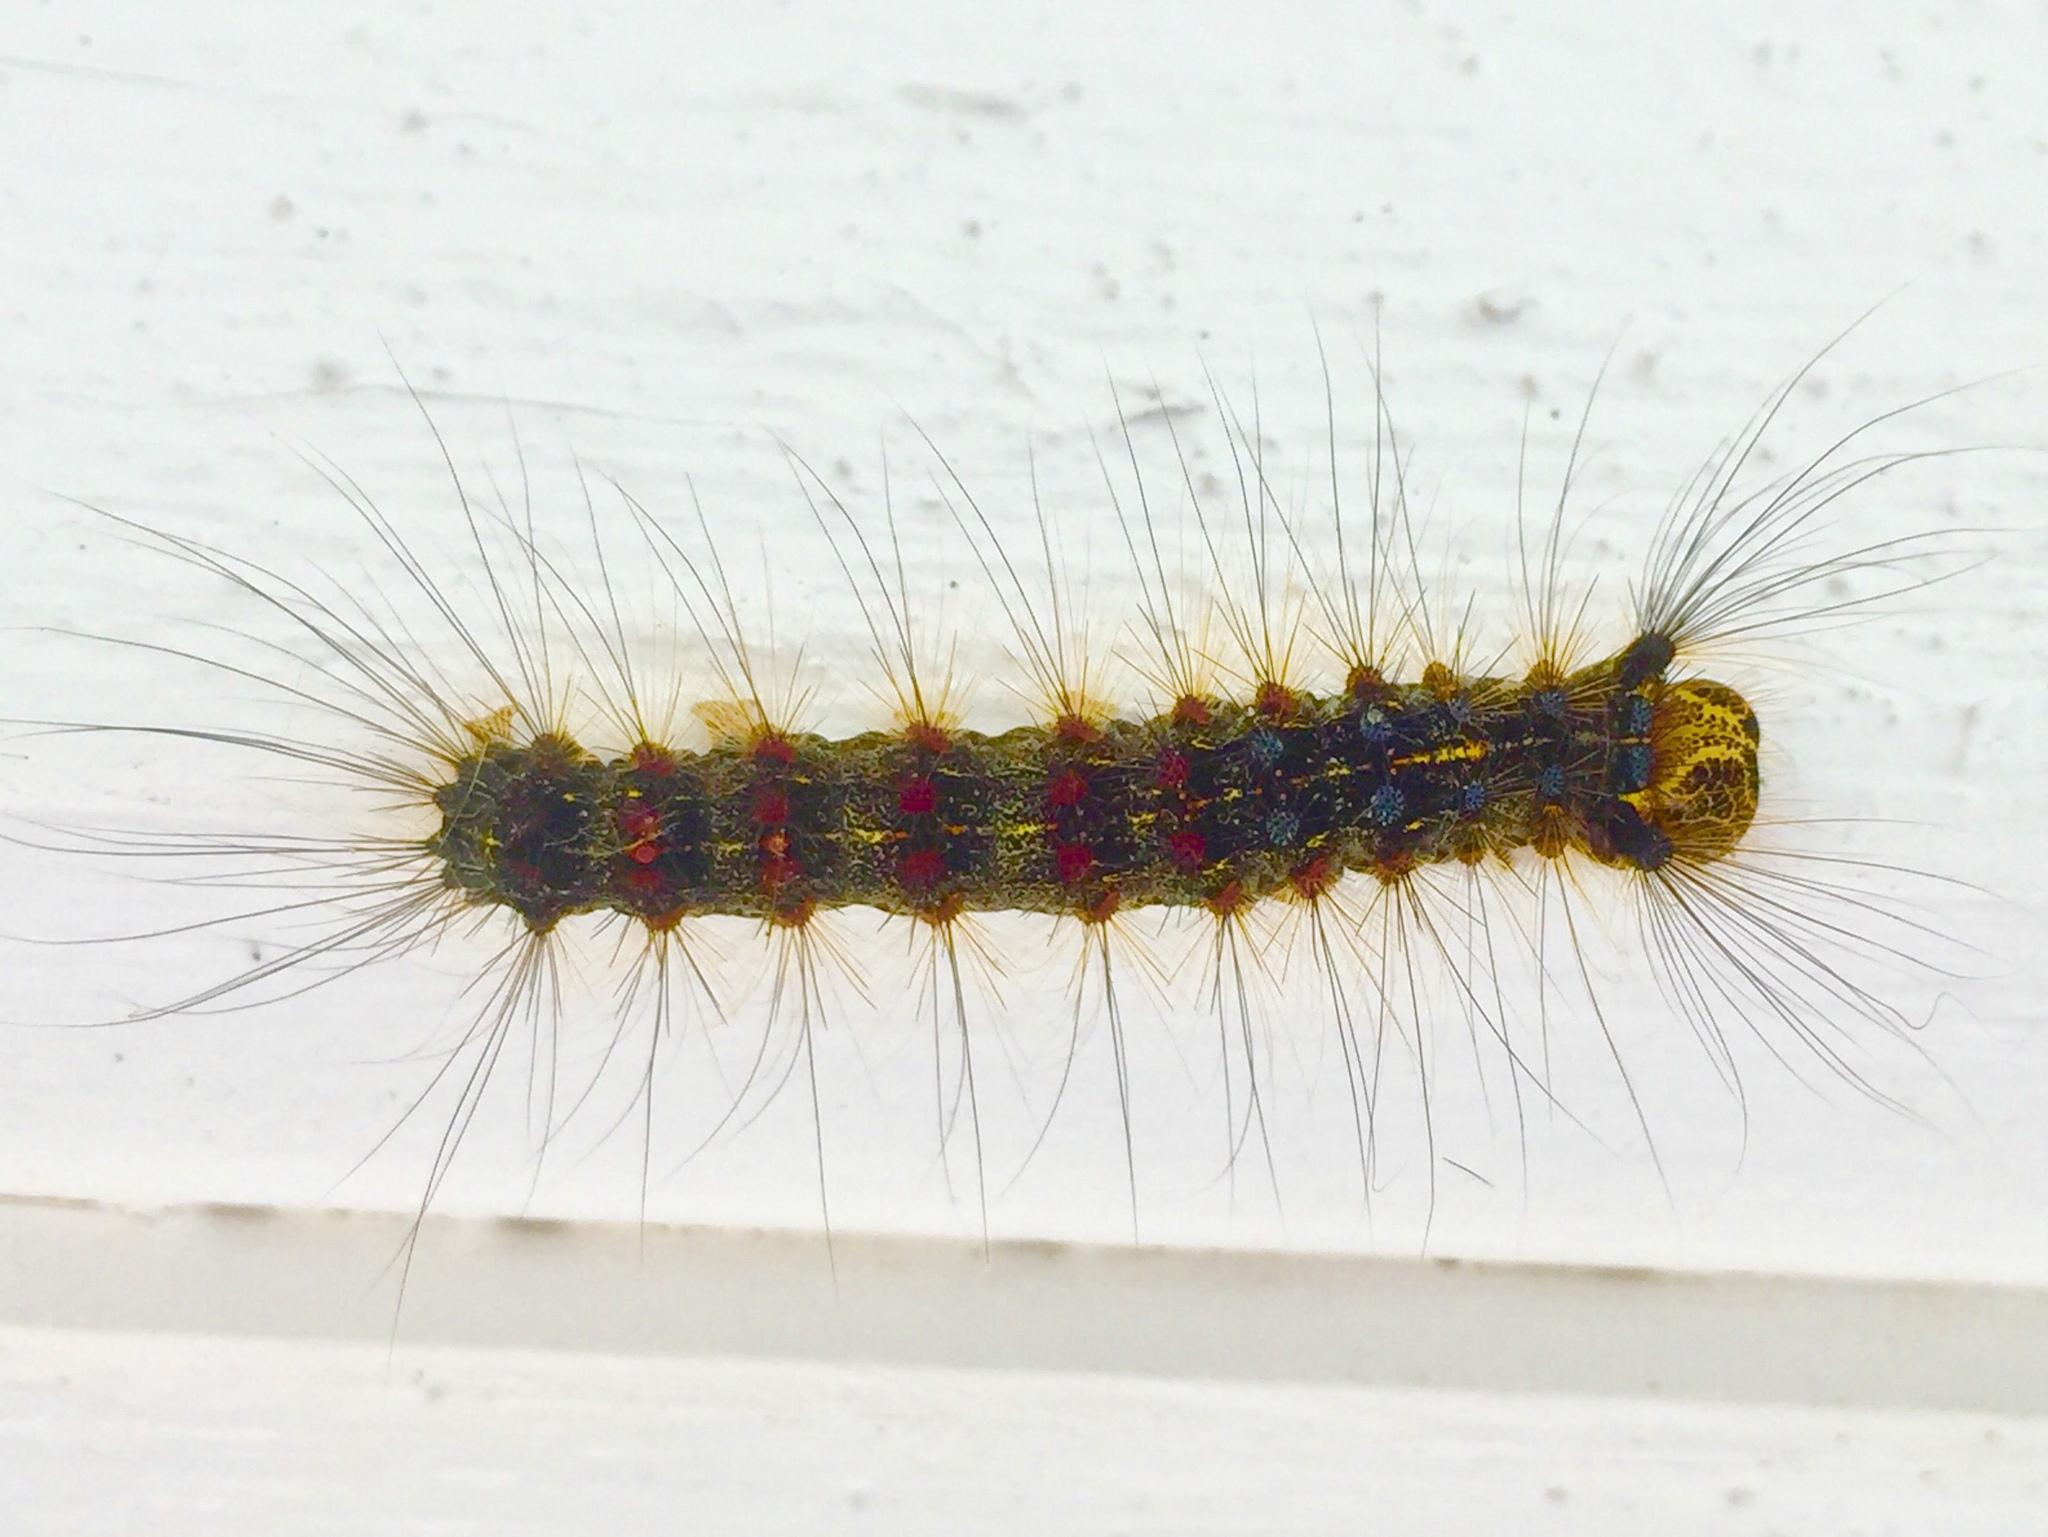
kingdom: Animalia
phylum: Arthropoda
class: Insecta
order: Lepidoptera
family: Erebidae
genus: Lymantria
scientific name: Lymantria dispar
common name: Gypsy moth
